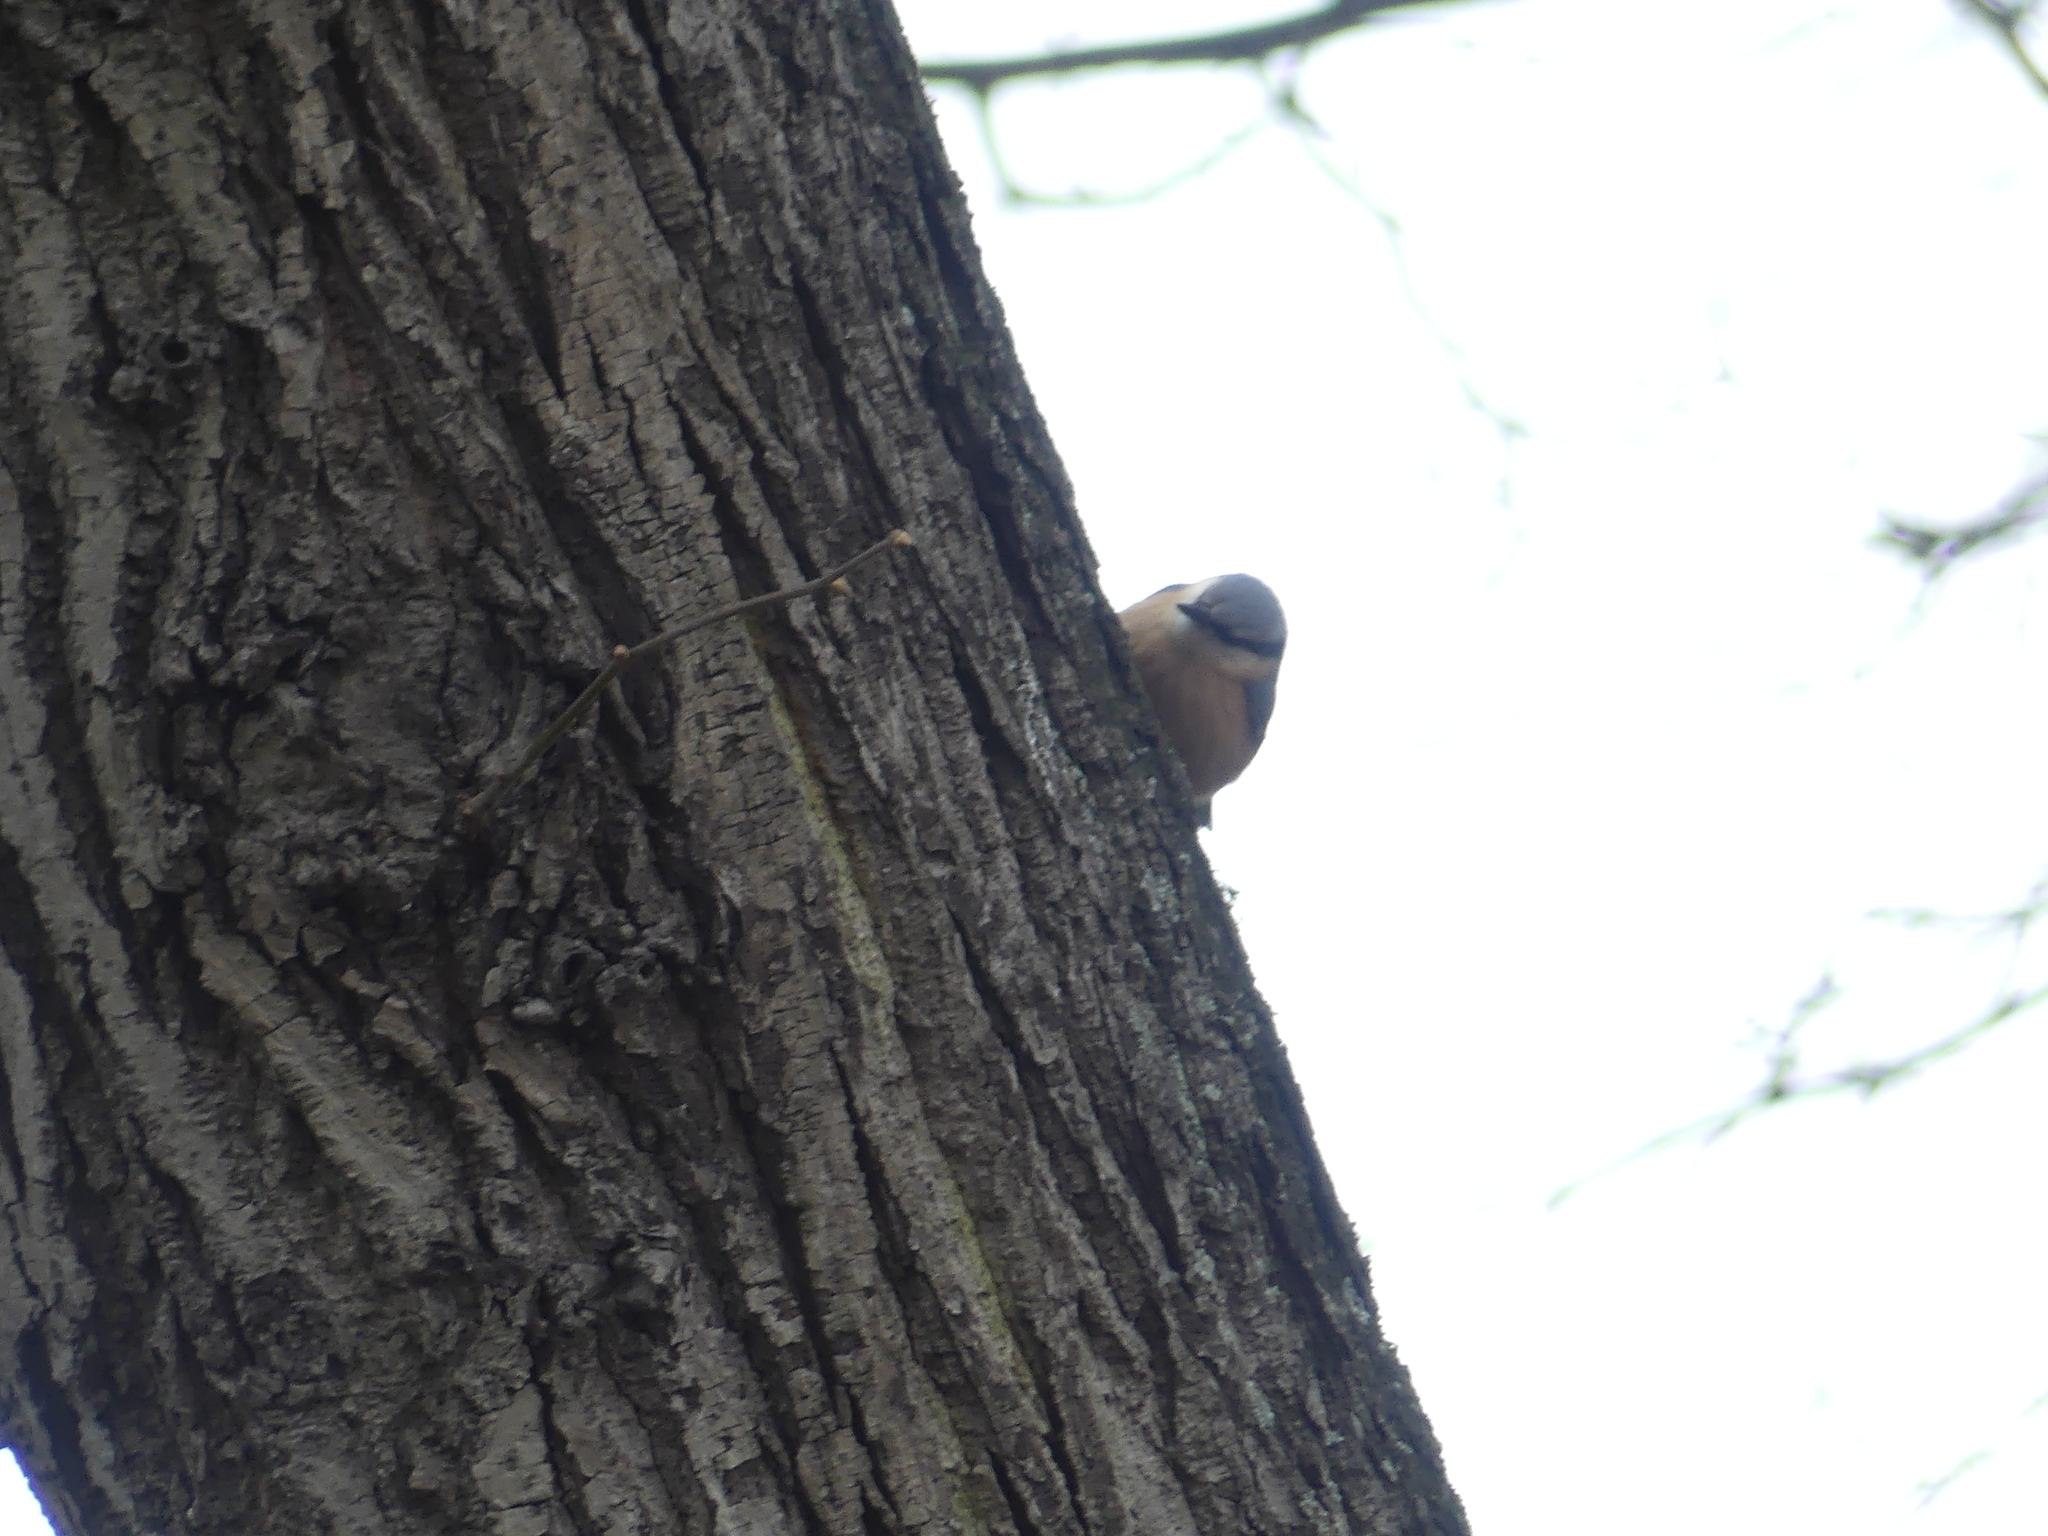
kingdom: Animalia
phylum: Chordata
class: Aves
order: Passeriformes
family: Sittidae
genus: Sitta
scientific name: Sitta europaea
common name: Eurasian nuthatch
